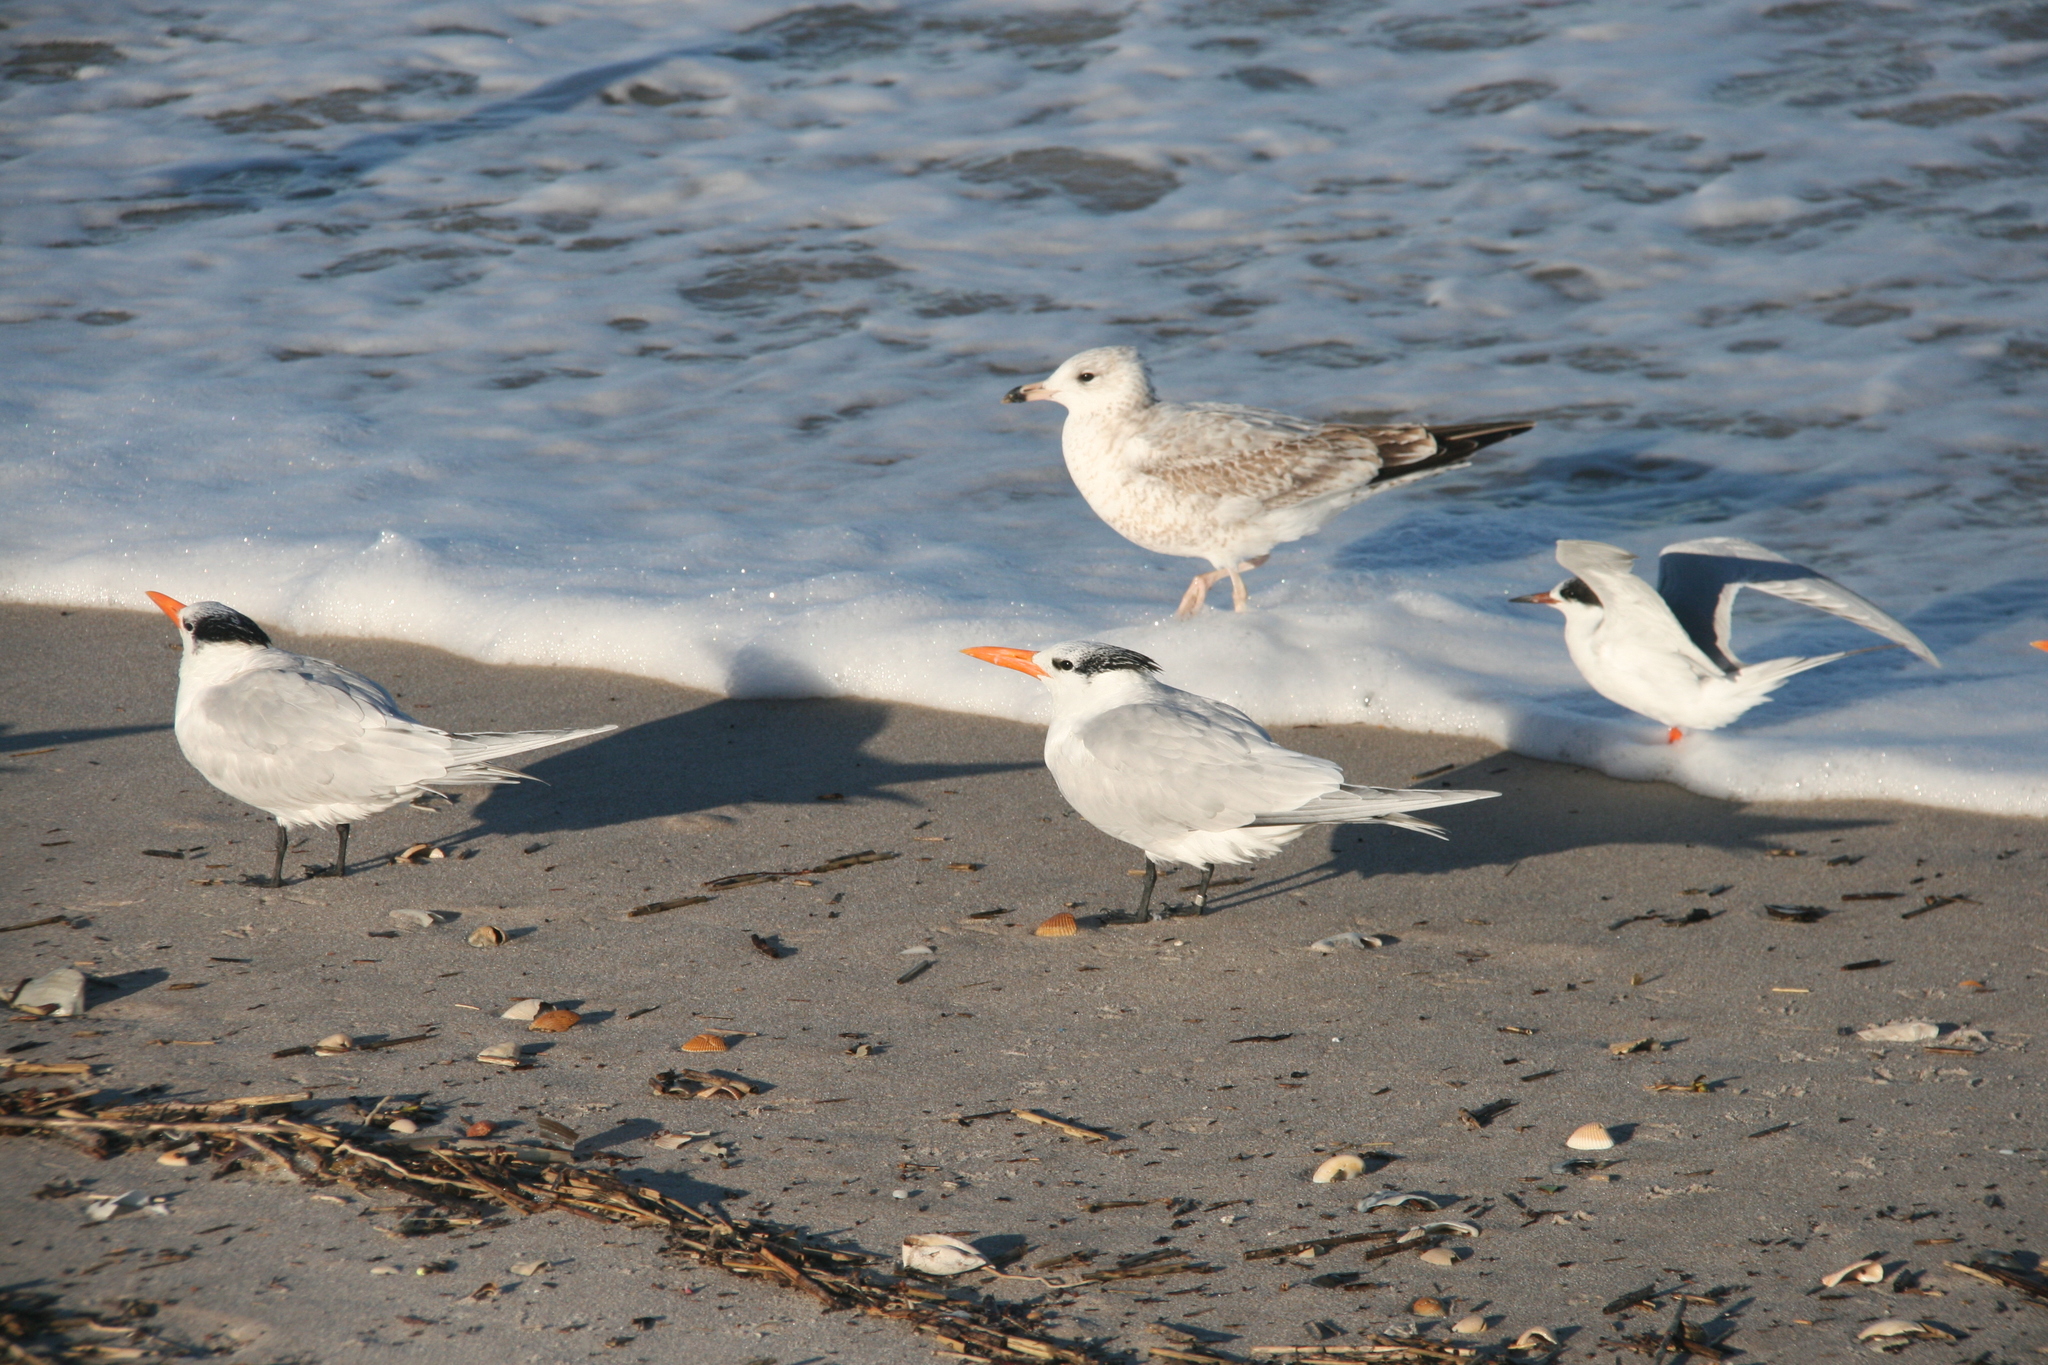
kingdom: Animalia
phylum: Chordata
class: Aves
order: Charadriiformes
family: Laridae
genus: Thalasseus
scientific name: Thalasseus maximus
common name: Royal tern
